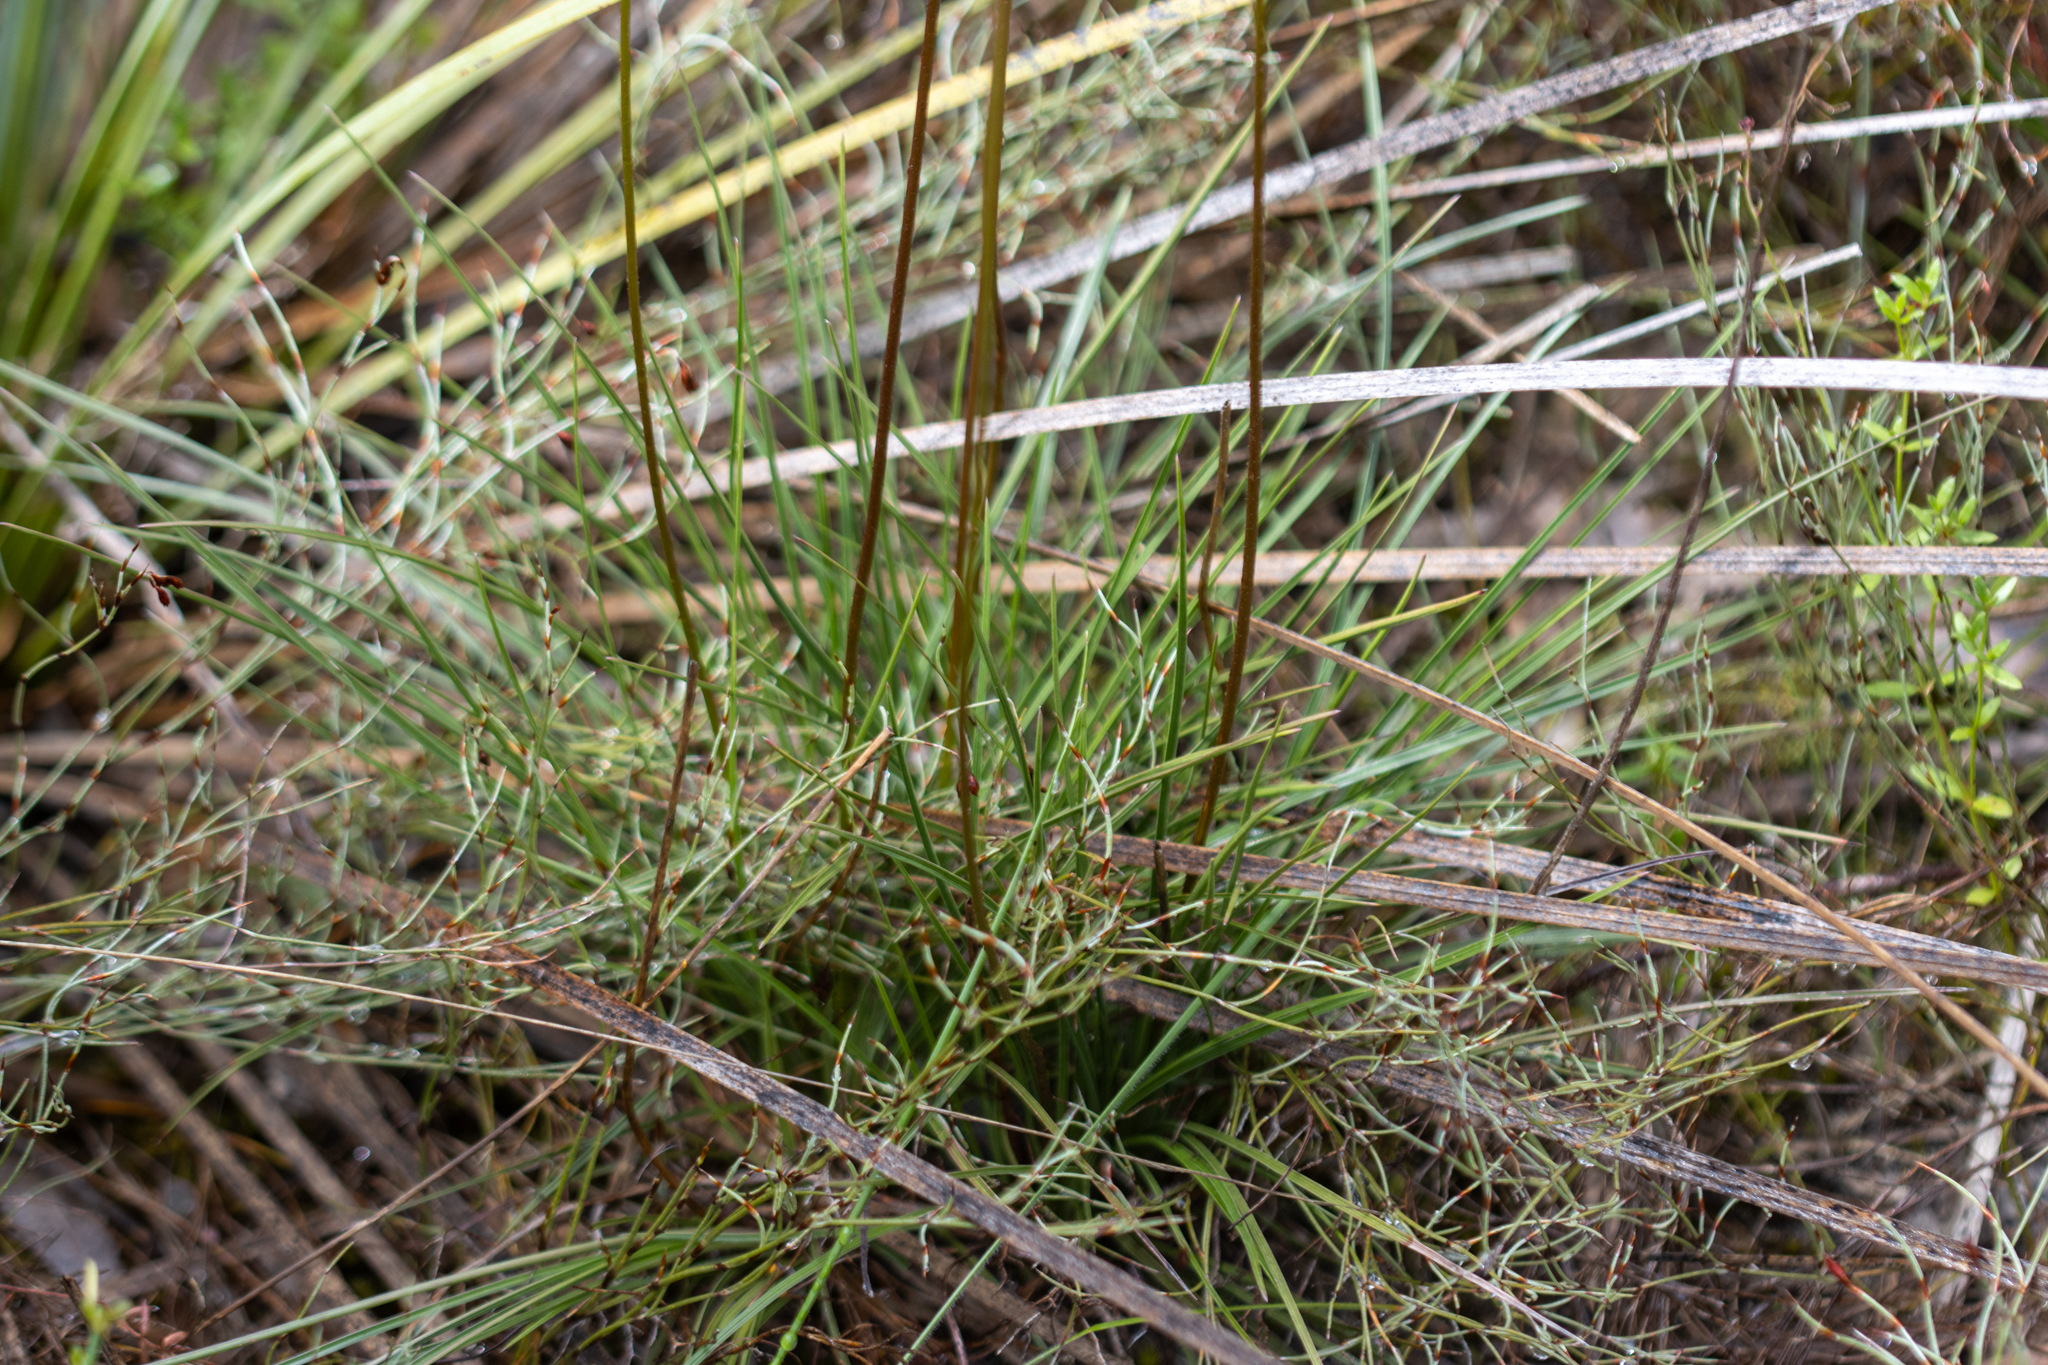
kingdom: Plantae
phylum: Tracheophyta
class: Magnoliopsida
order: Asterales
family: Stylidiaceae
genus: Stylidium
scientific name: Stylidium graminifolium
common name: Grass triggerplant
